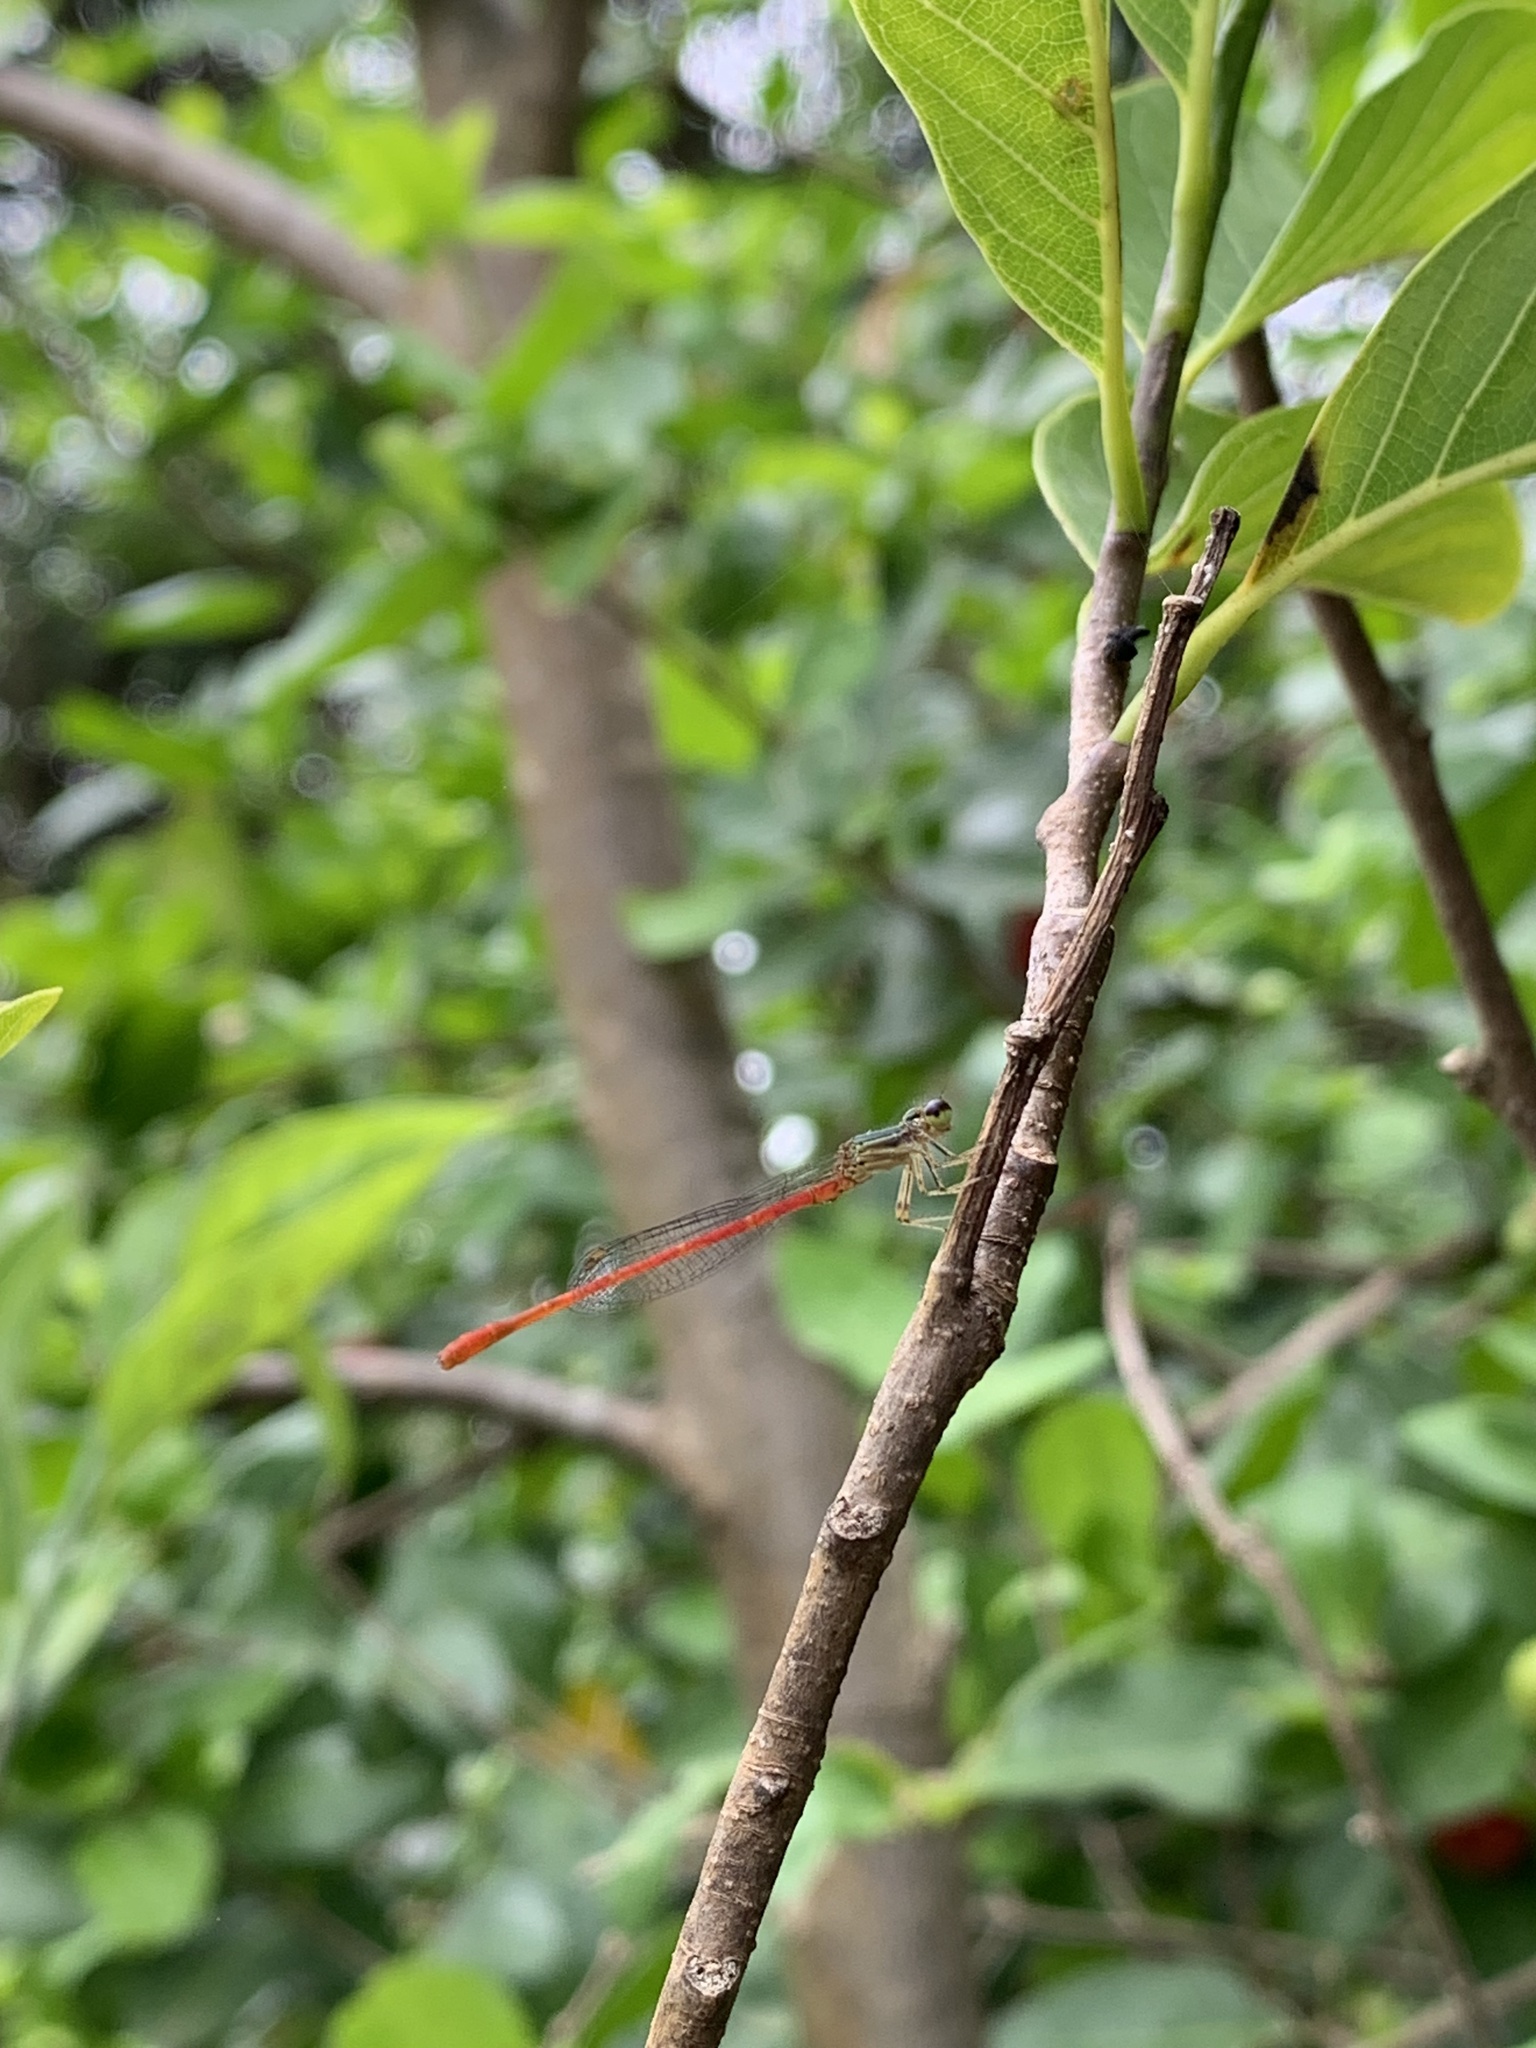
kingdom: Animalia
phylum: Arthropoda
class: Insecta
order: Odonata
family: Coenagrionidae
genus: Telebasis
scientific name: Telebasis filiola
